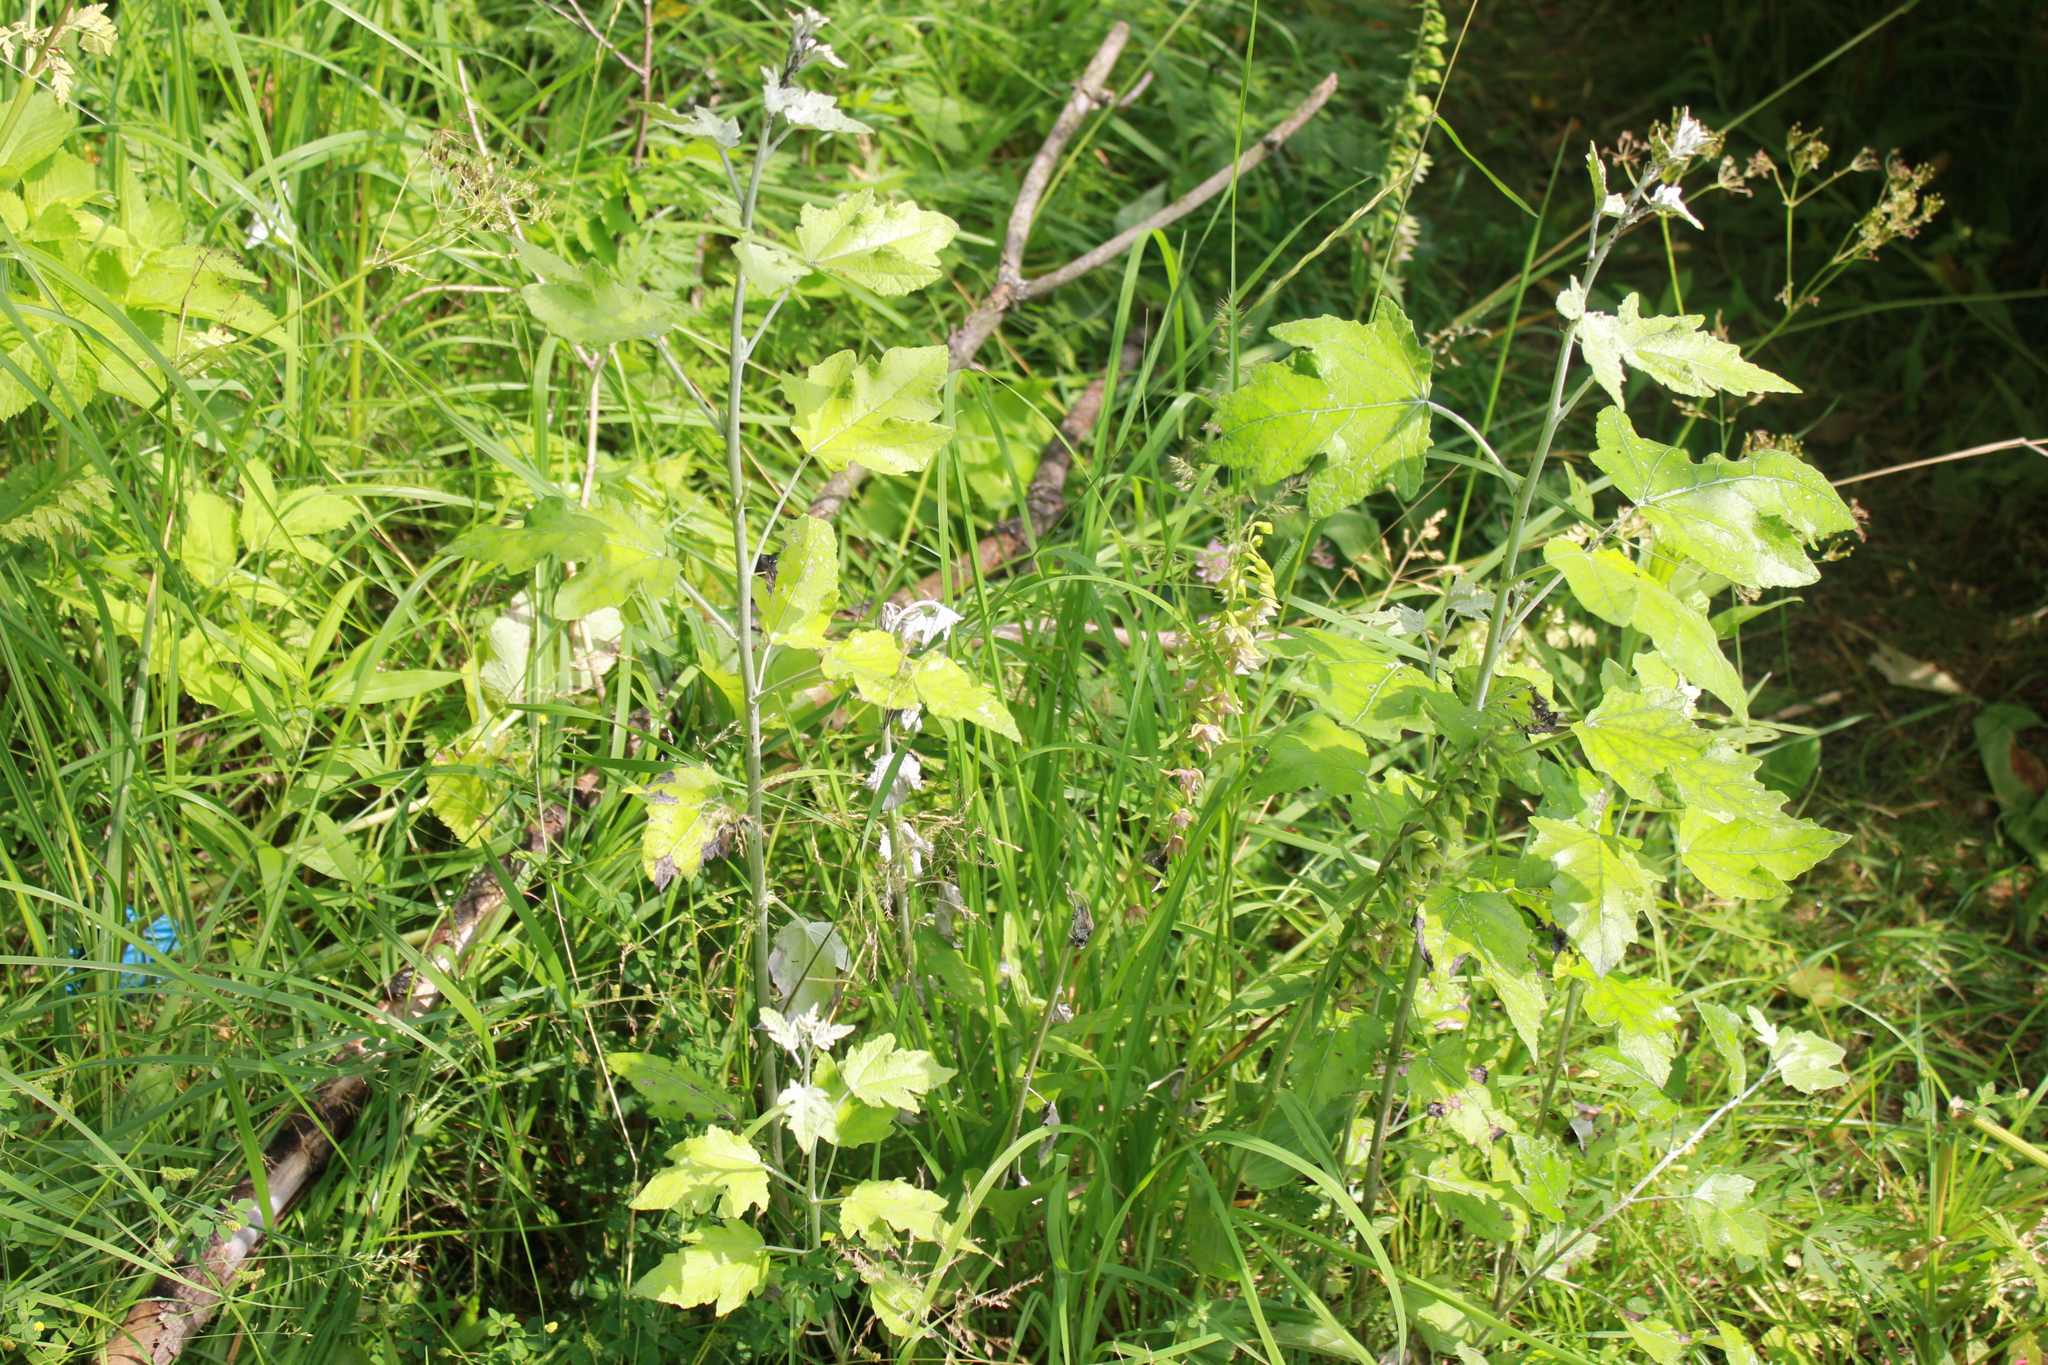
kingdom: Plantae
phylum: Tracheophyta
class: Liliopsida
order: Asparagales
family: Orchidaceae
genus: Epipactis
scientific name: Epipactis helleborine
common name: Broad-leaved helleborine
